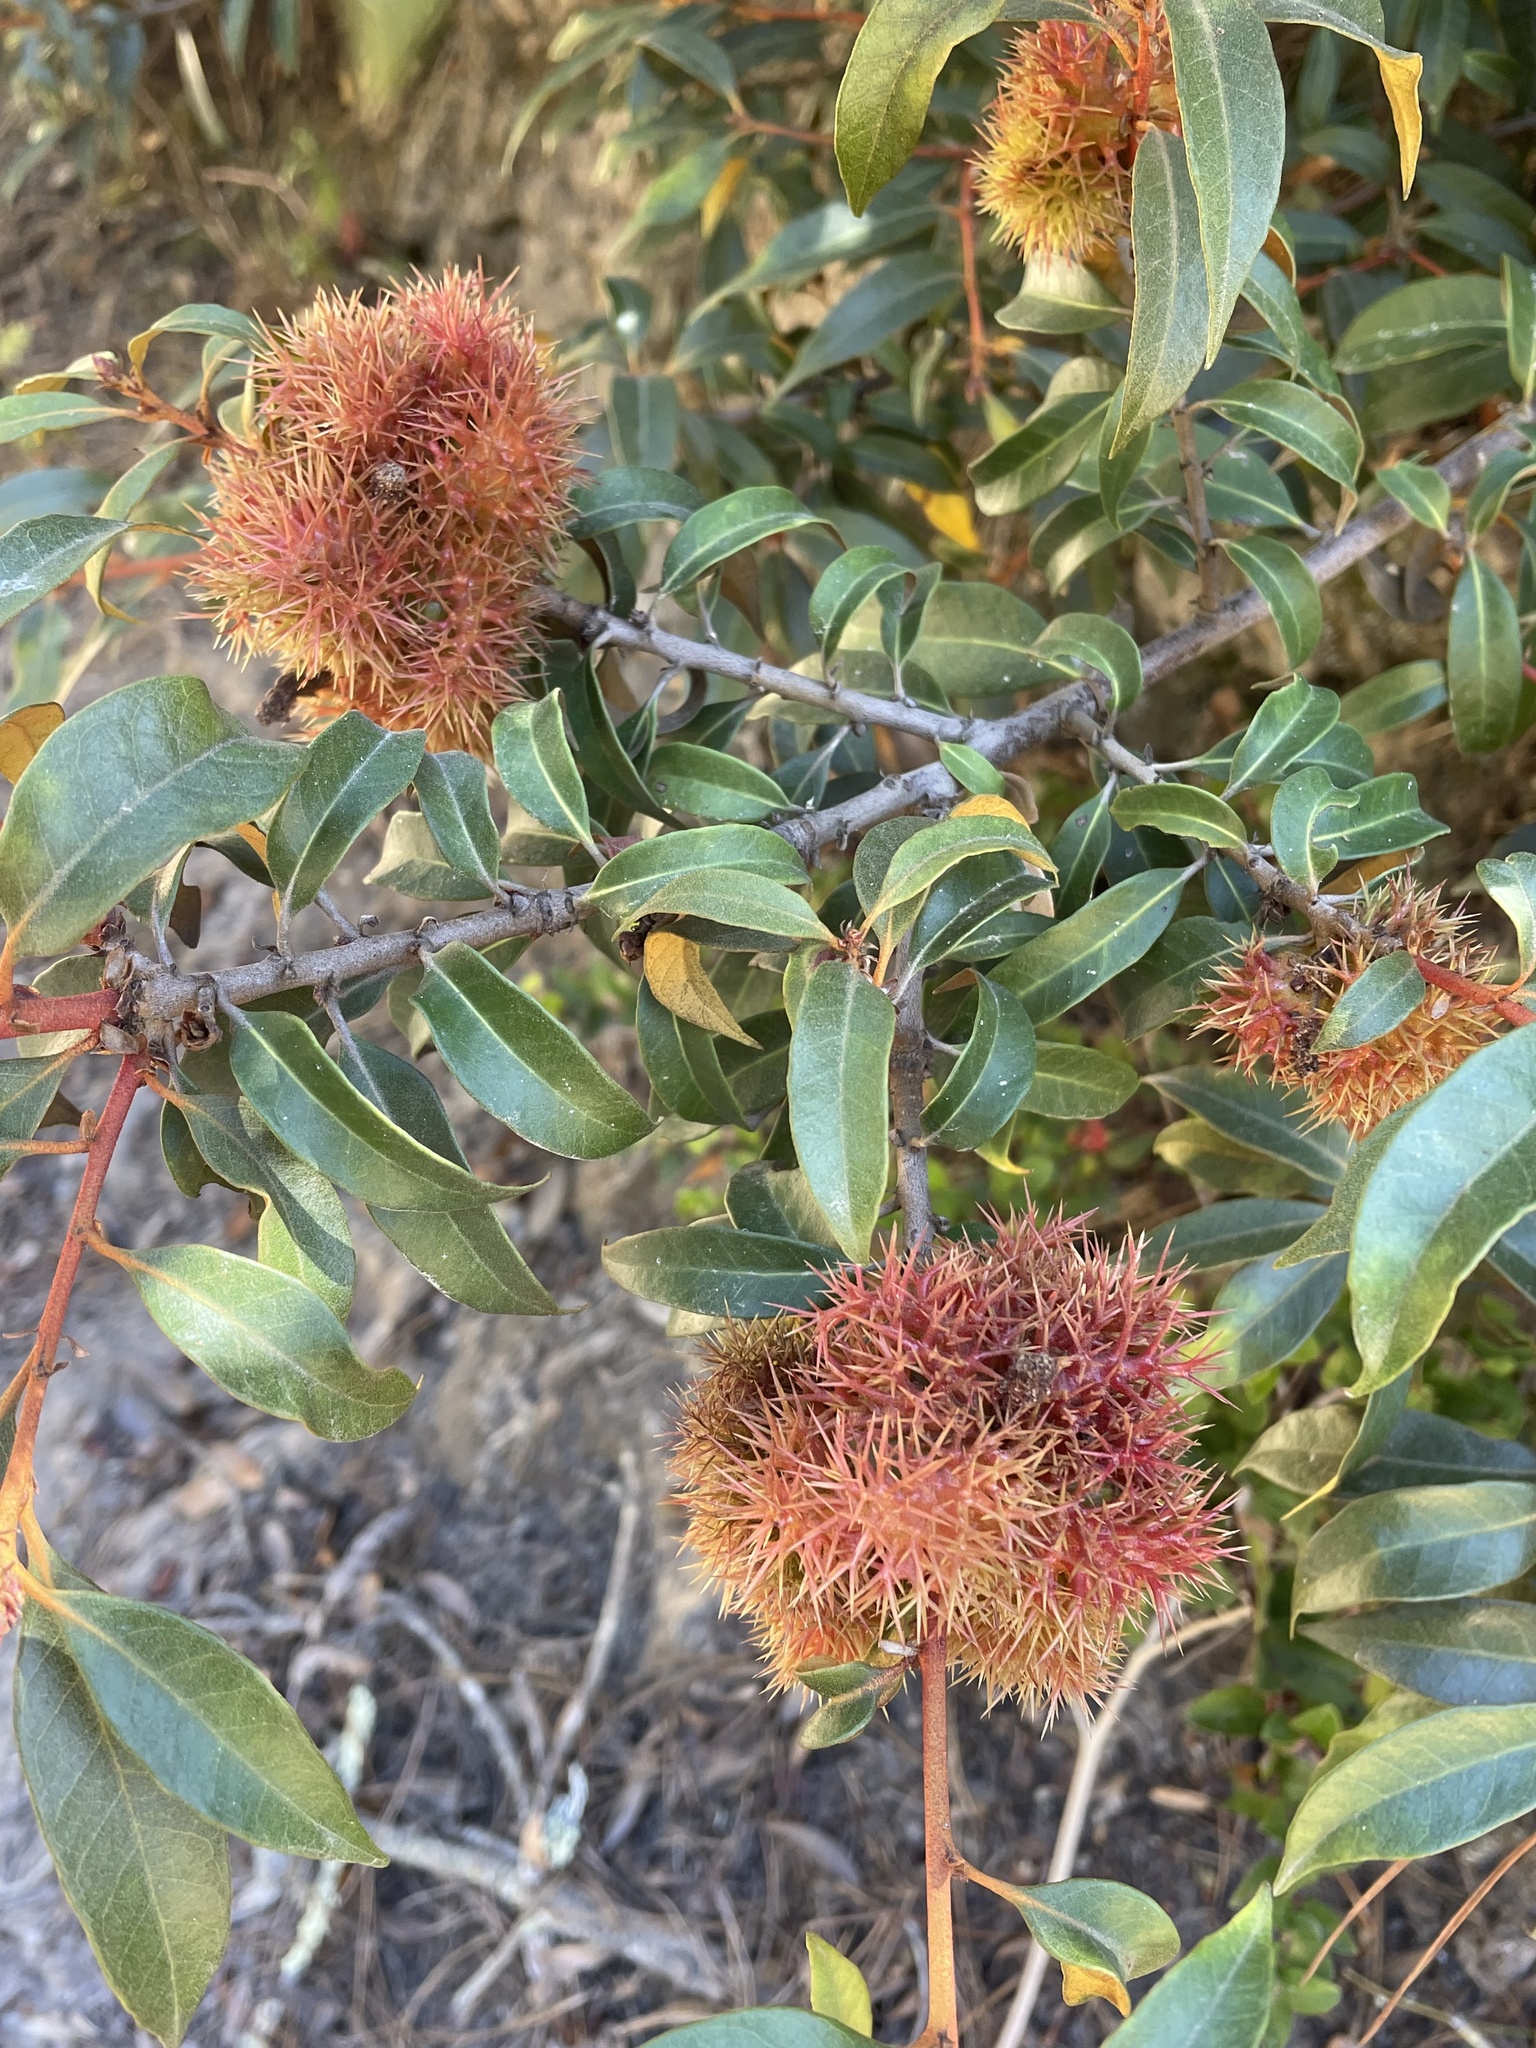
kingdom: Plantae
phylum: Tracheophyta
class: Magnoliopsida
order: Fagales
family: Fagaceae
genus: Chrysolepis
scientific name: Chrysolepis chrysophylla
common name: Giant chinquapin
